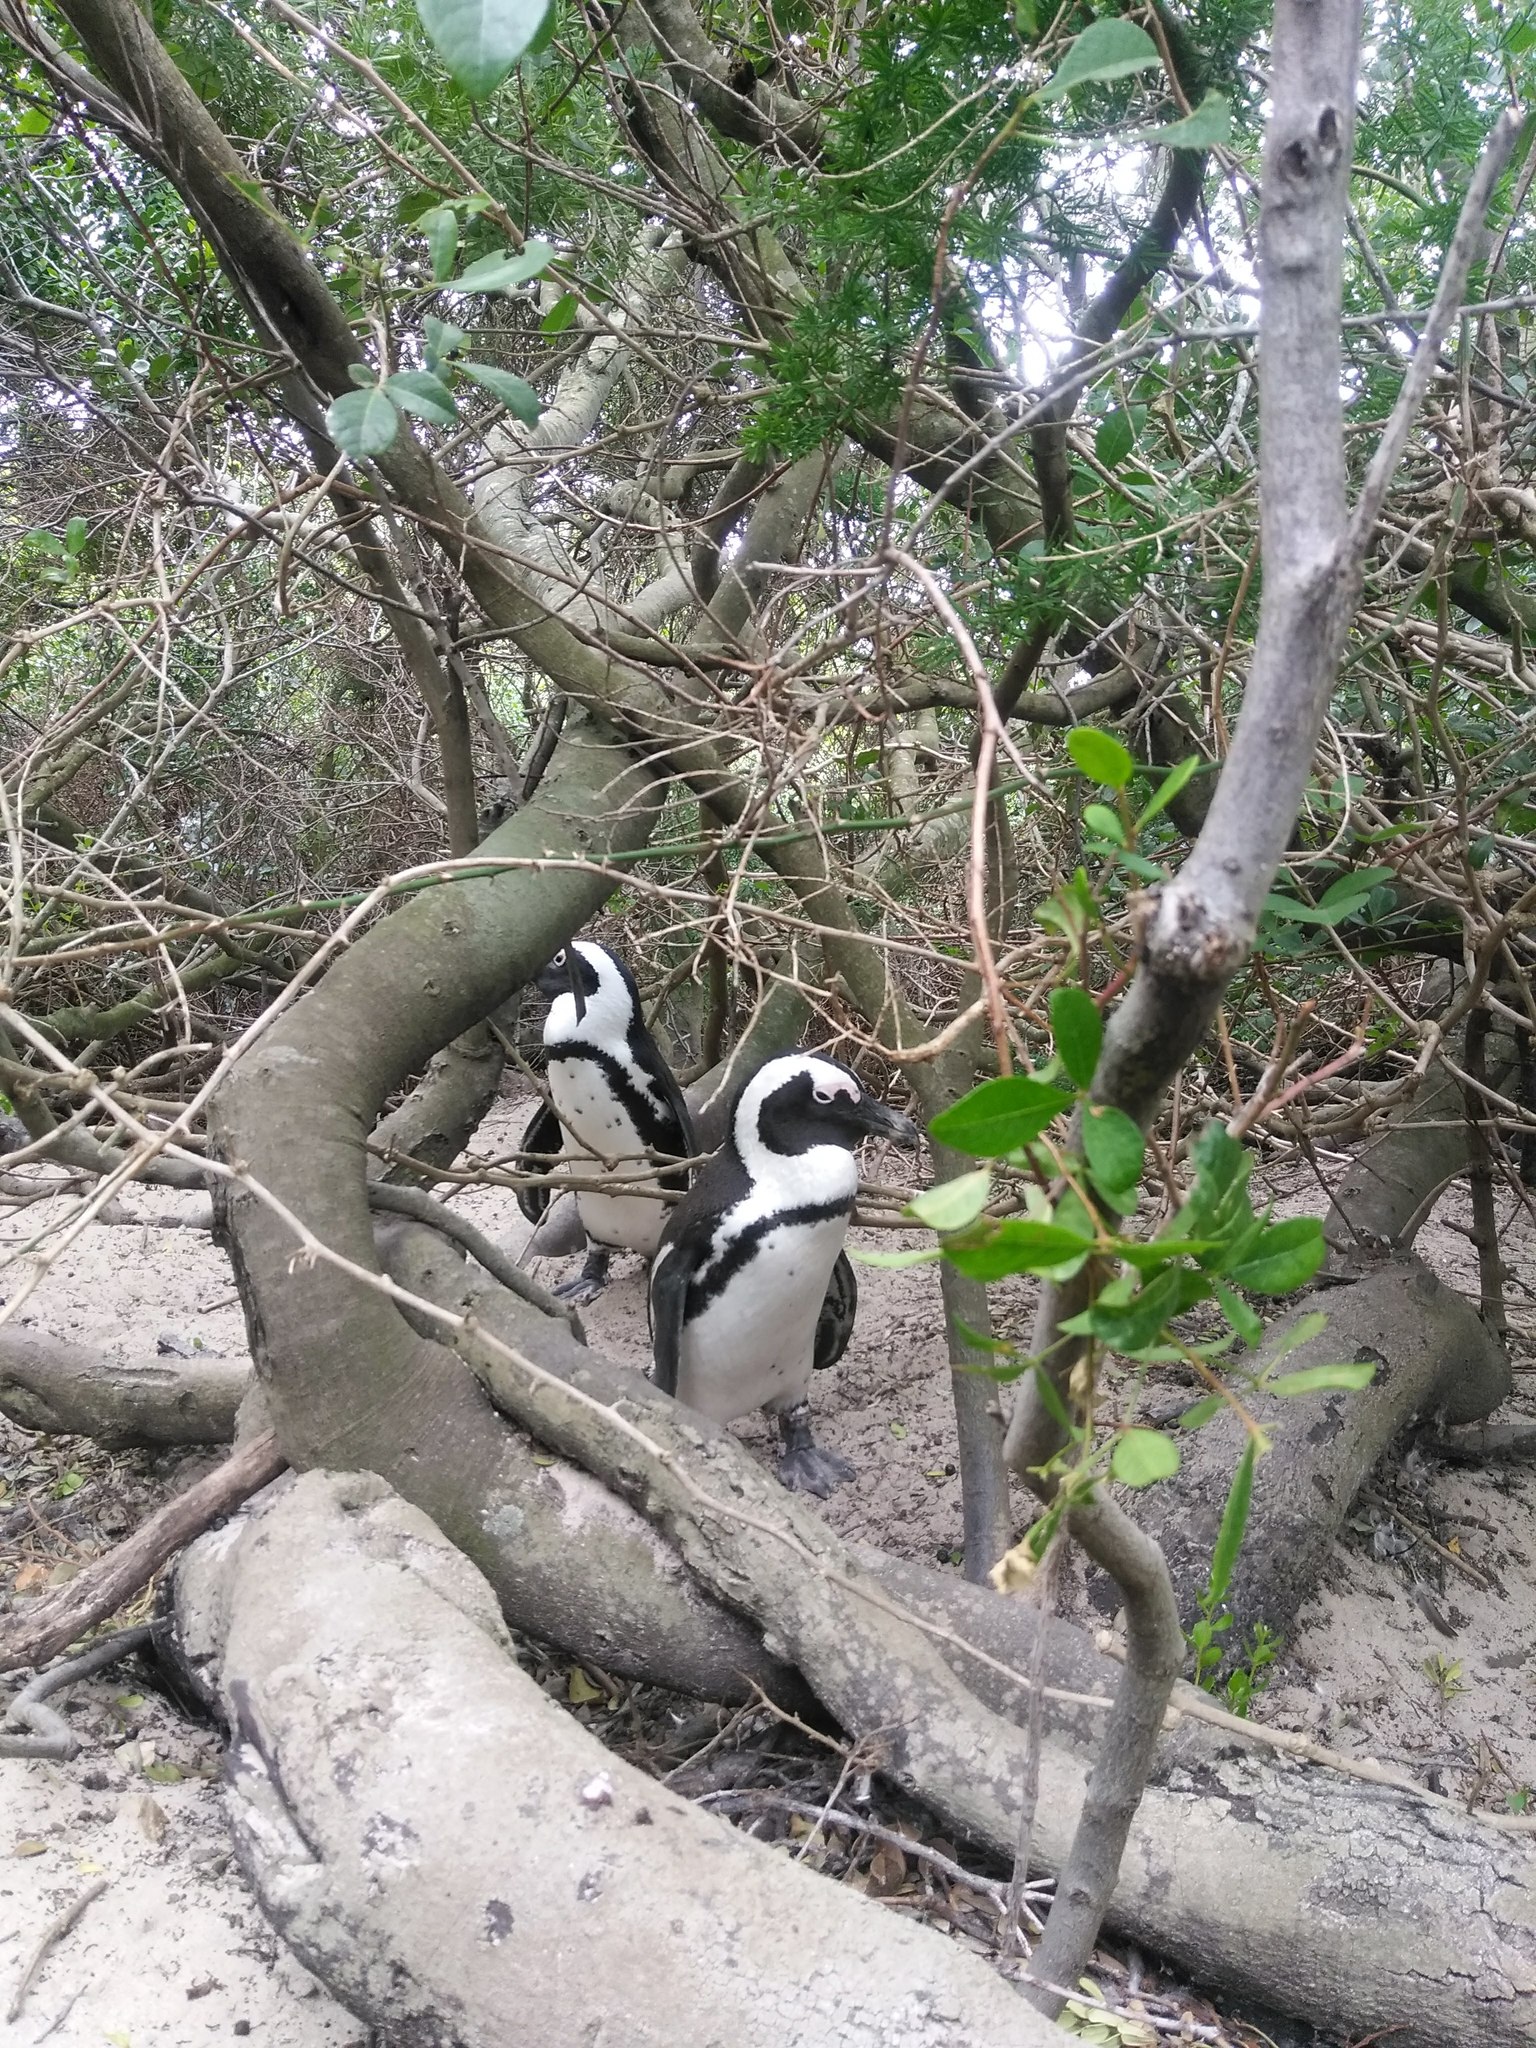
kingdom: Animalia
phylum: Chordata
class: Aves
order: Sphenisciformes
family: Spheniscidae
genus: Spheniscus
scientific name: Spheniscus demersus
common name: African penguin
